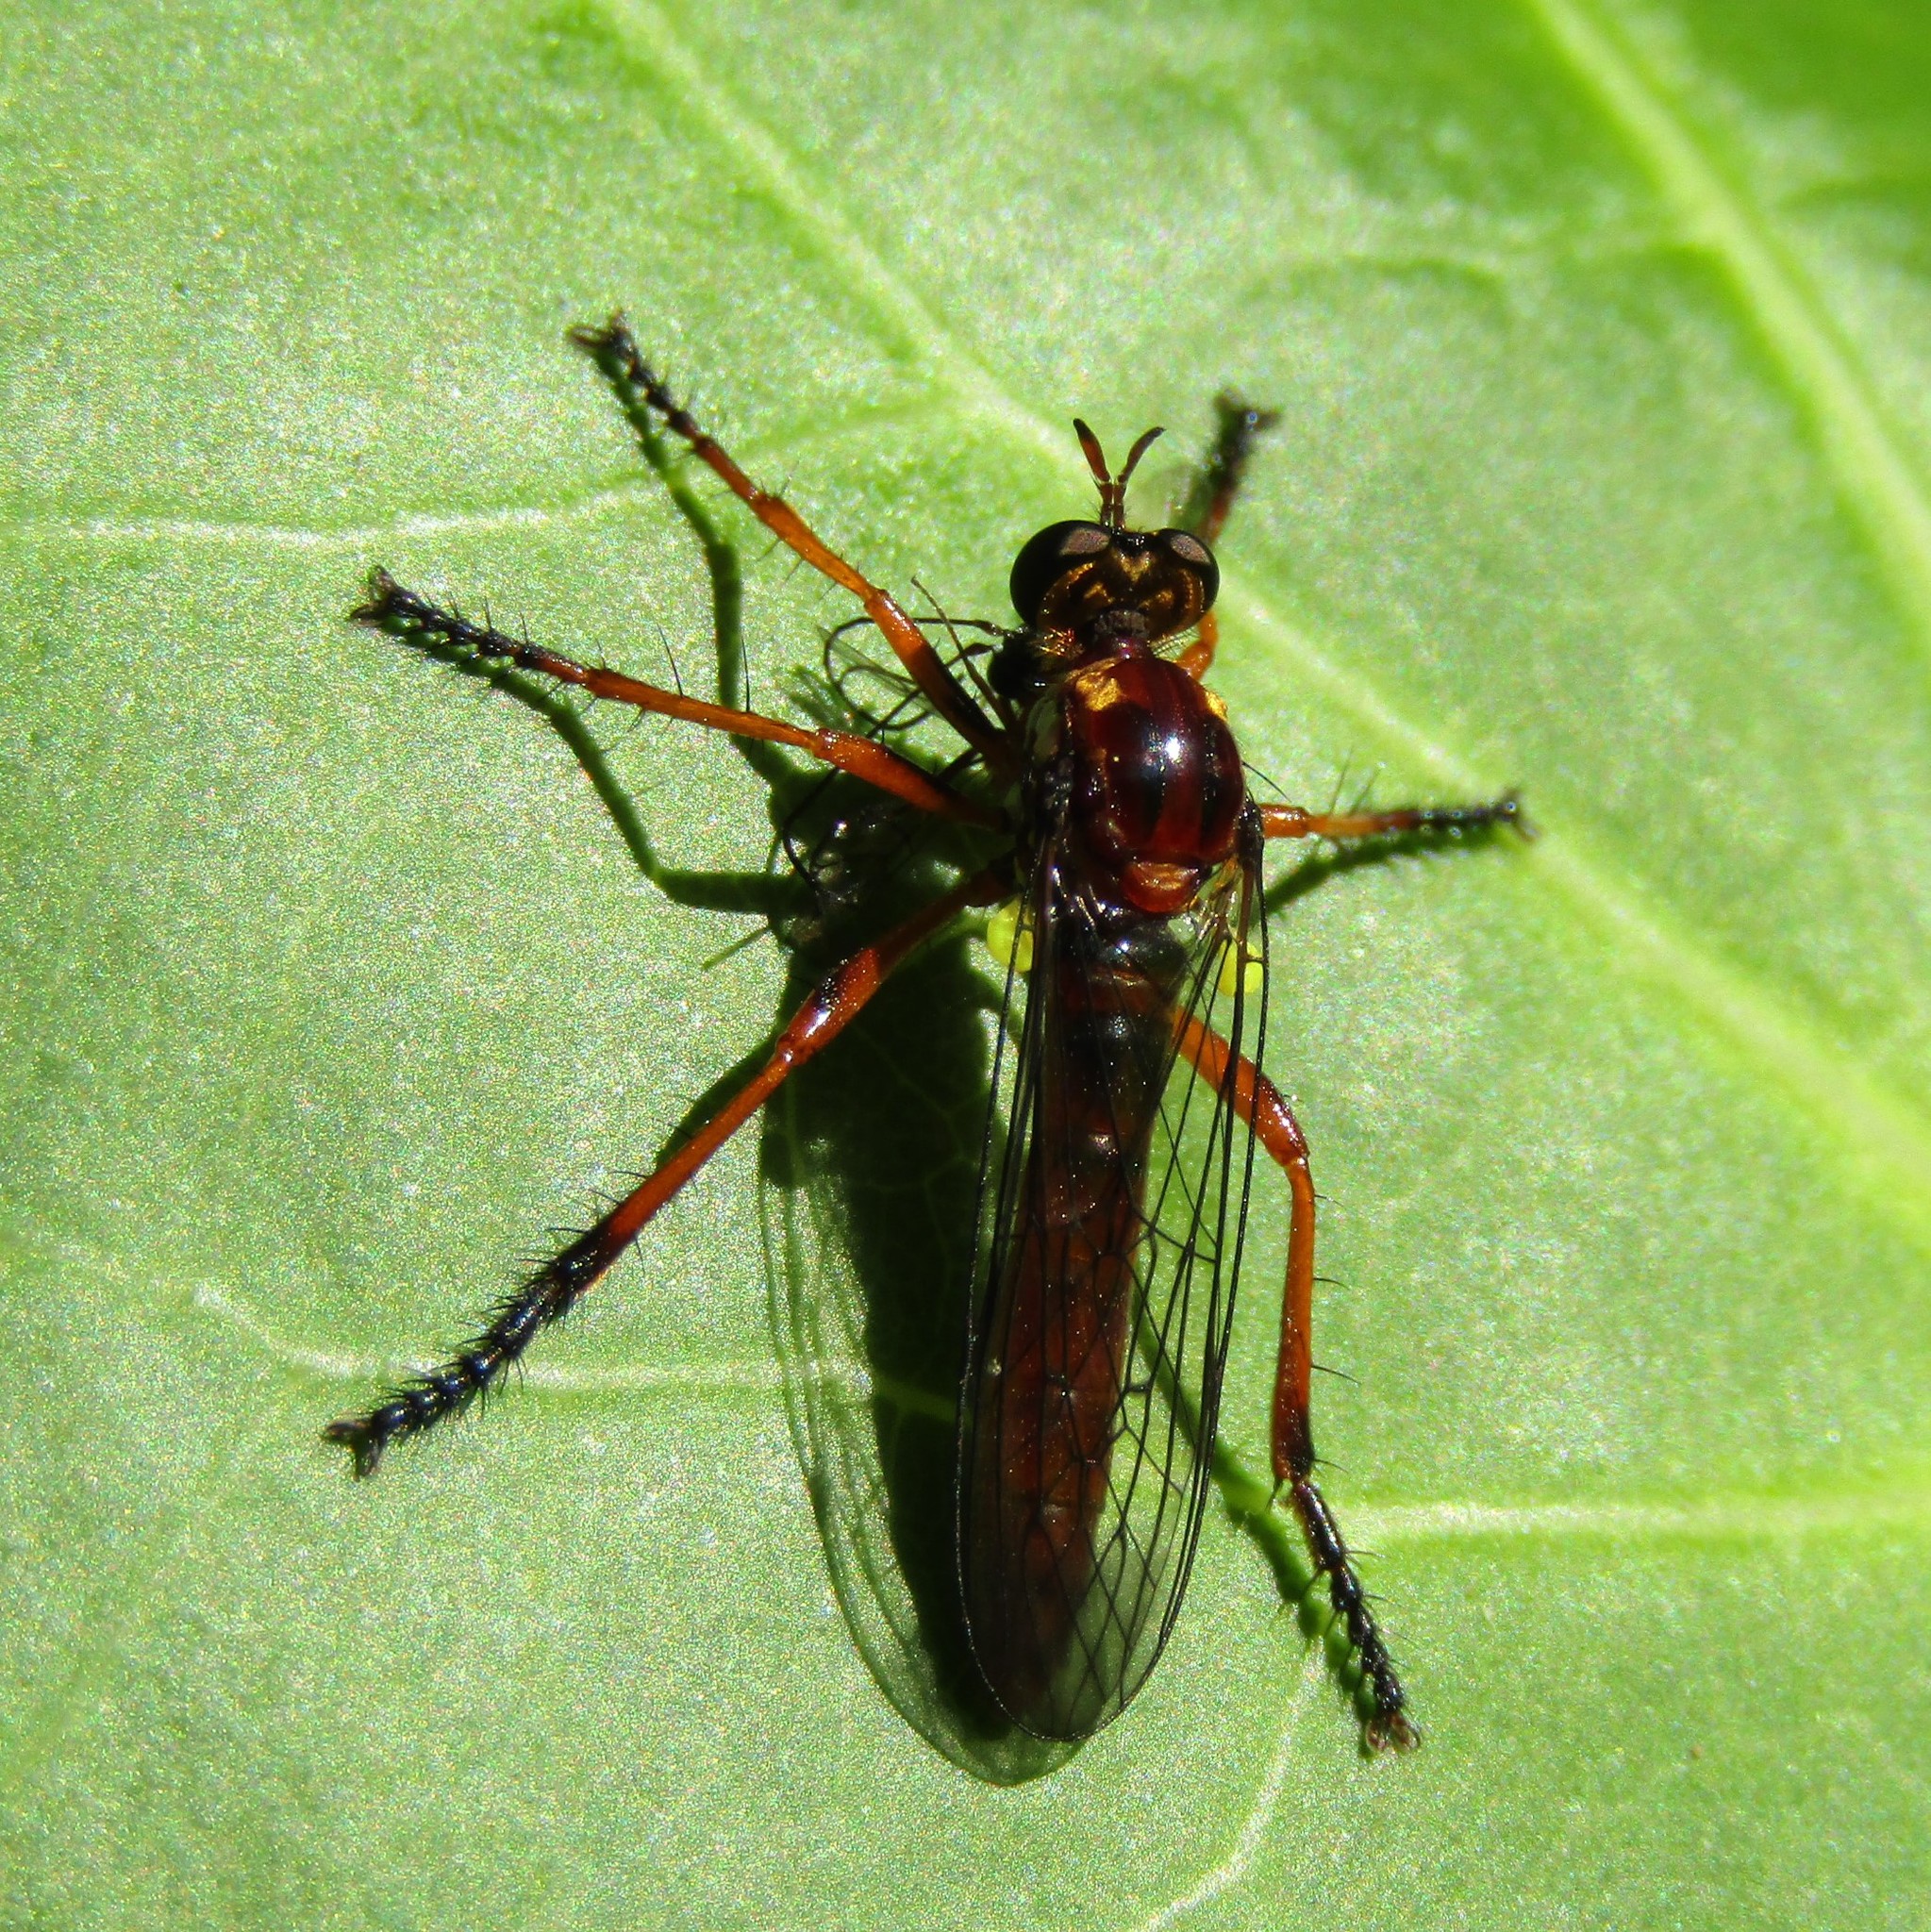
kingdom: Animalia
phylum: Arthropoda
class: Insecta
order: Diptera
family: Asilidae
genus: Saropogon
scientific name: Saropogon antipodus
